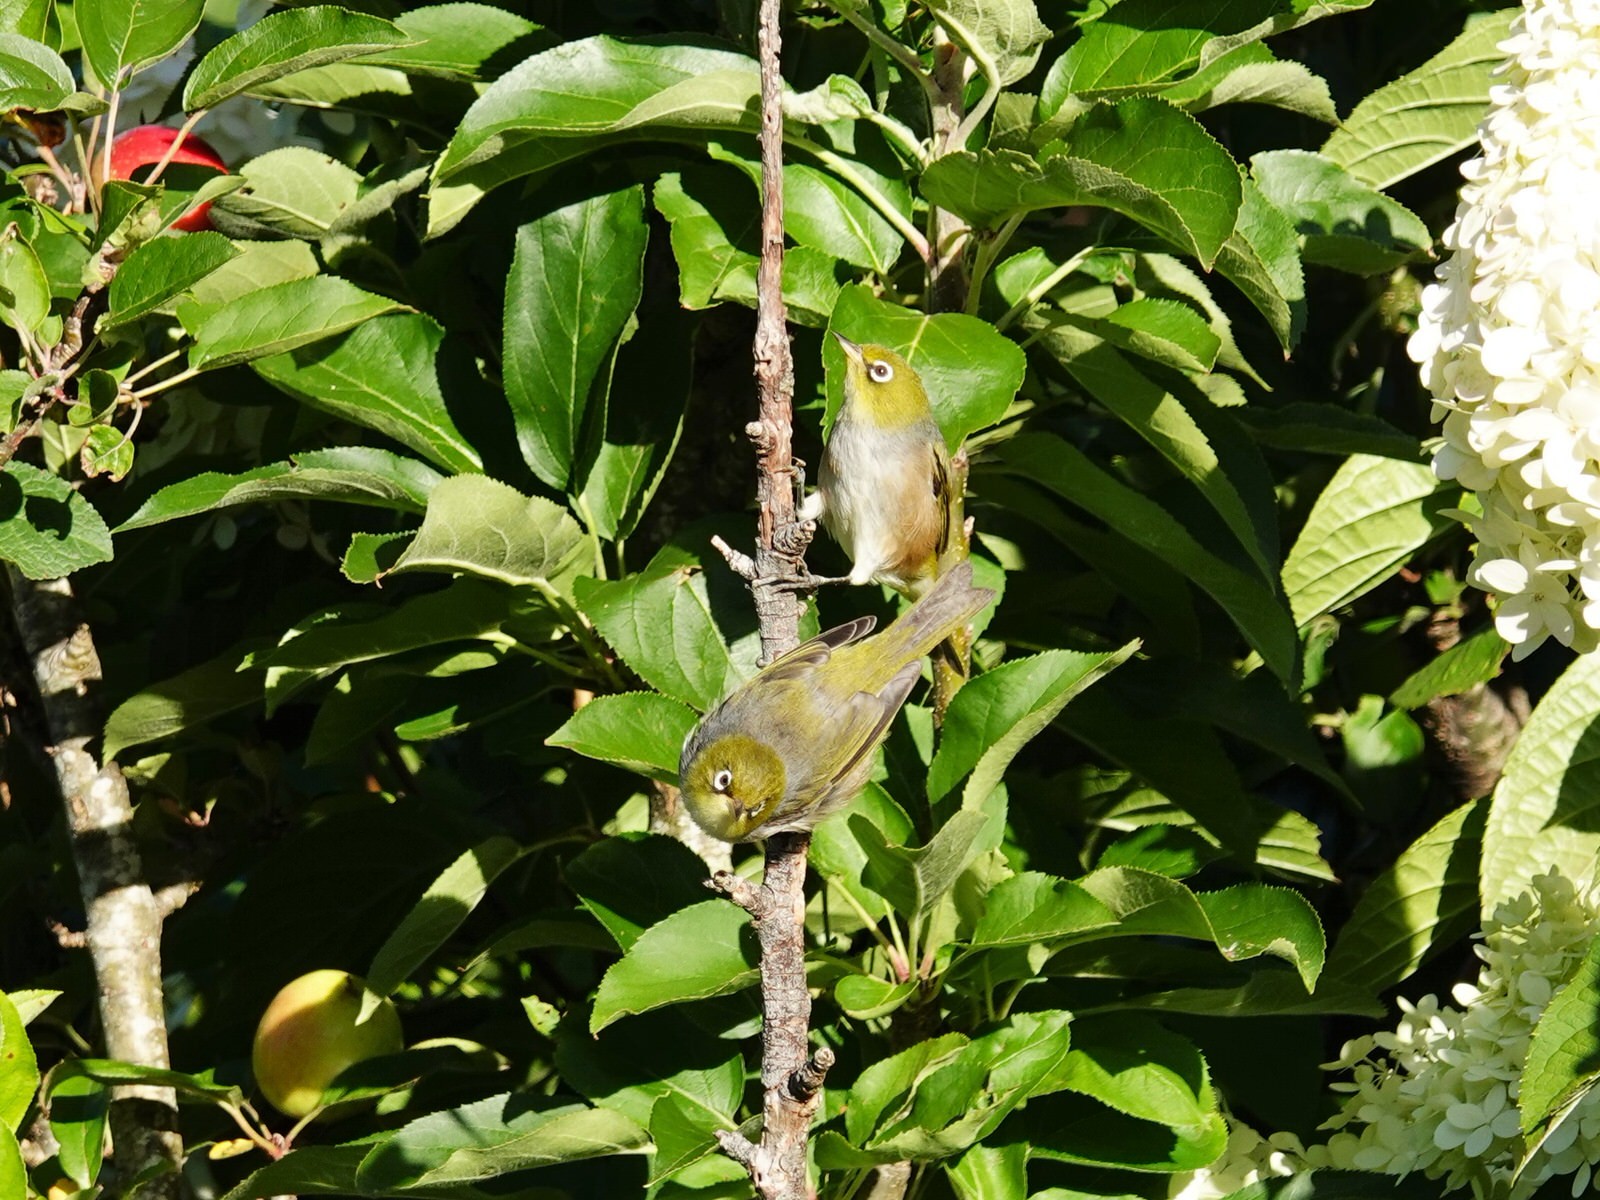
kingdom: Animalia
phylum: Chordata
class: Aves
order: Passeriformes
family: Zosteropidae
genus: Zosterops
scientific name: Zosterops lateralis
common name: Silvereye
